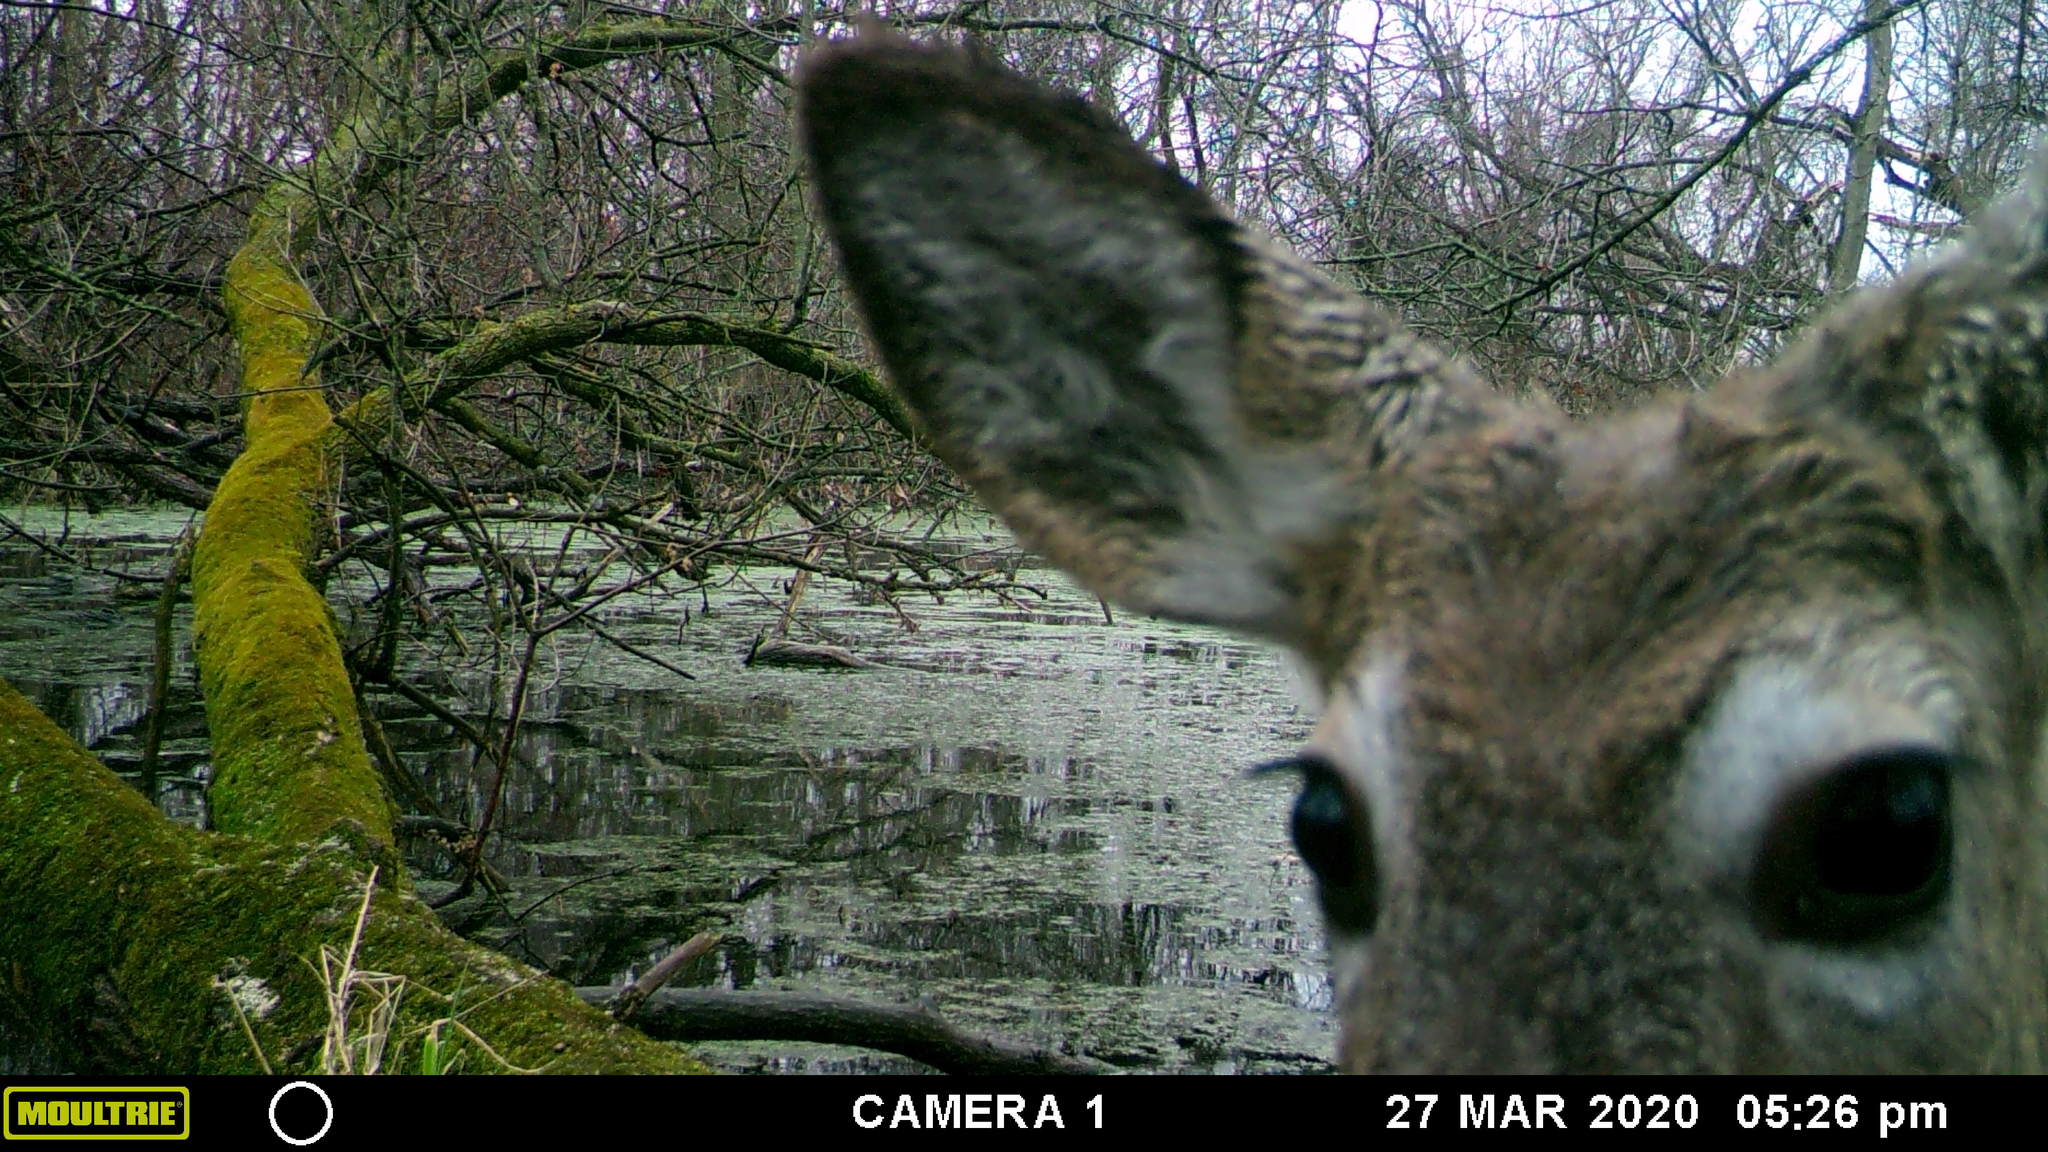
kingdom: Animalia
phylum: Chordata
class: Mammalia
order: Artiodactyla
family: Cervidae
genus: Odocoileus
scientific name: Odocoileus virginianus
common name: White-tailed deer
